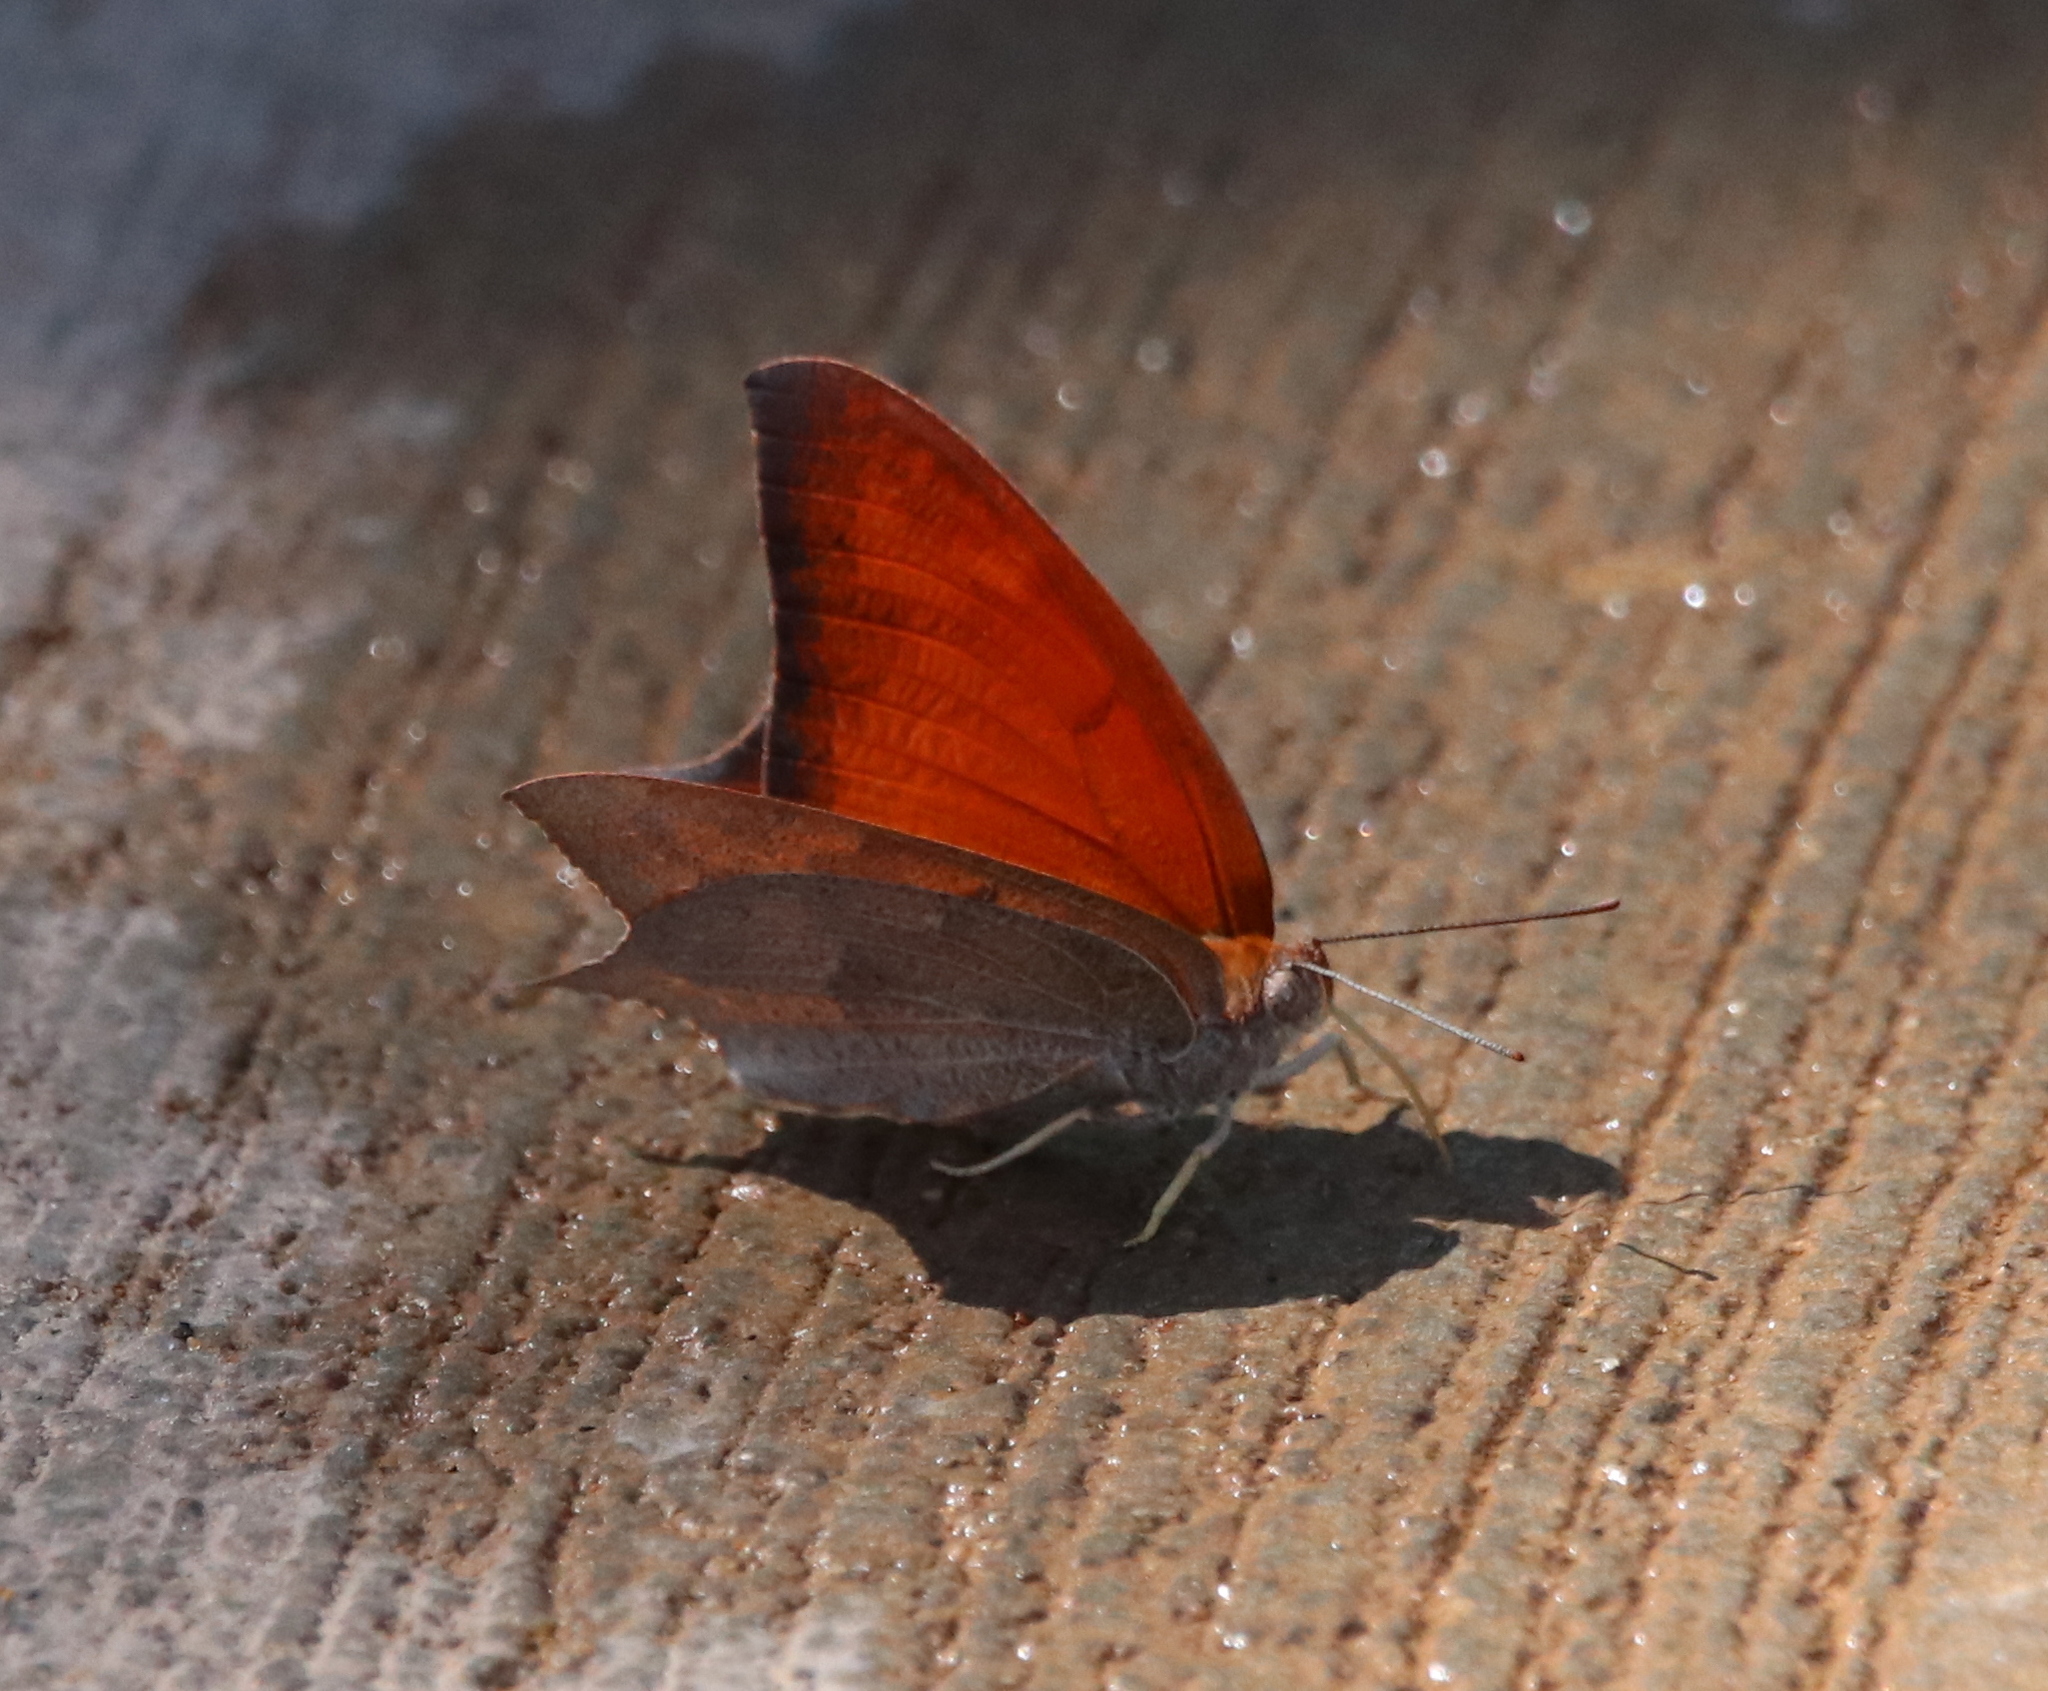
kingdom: Animalia
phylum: Arthropoda
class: Insecta
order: Lepidoptera
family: Nymphalidae
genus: Anaea
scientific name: Anaea andria
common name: Goatweed leafwing
